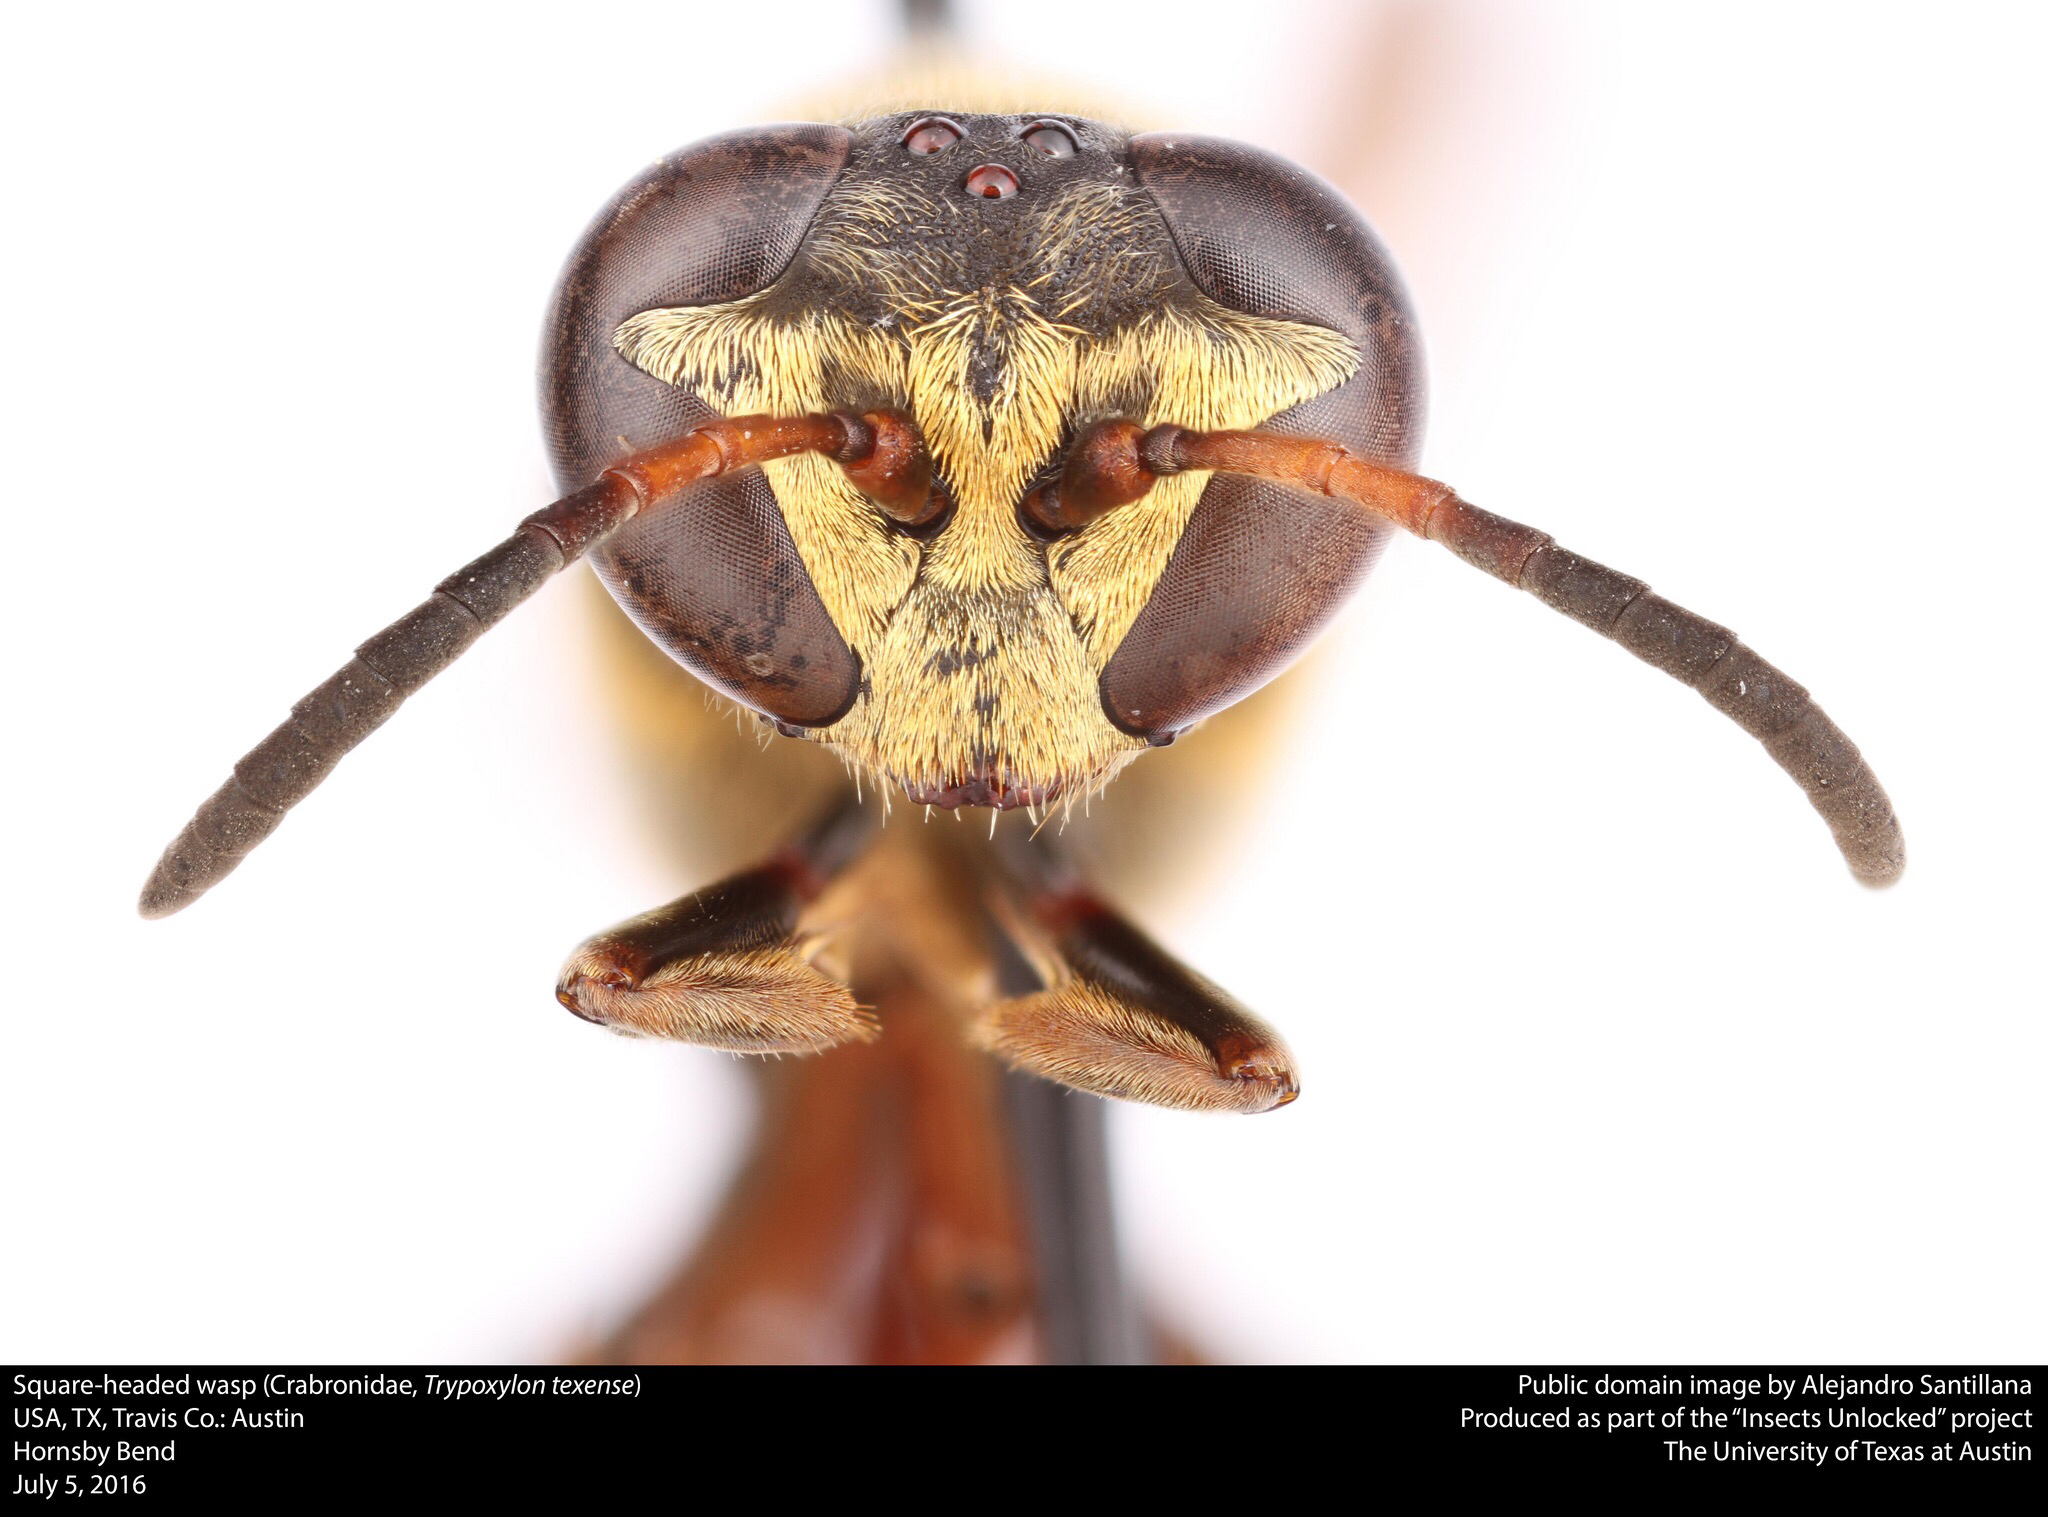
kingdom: Animalia
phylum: Arthropoda
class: Insecta
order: Hymenoptera
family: Crabronidae
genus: Trypoxylon
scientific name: Trypoxylon texense
